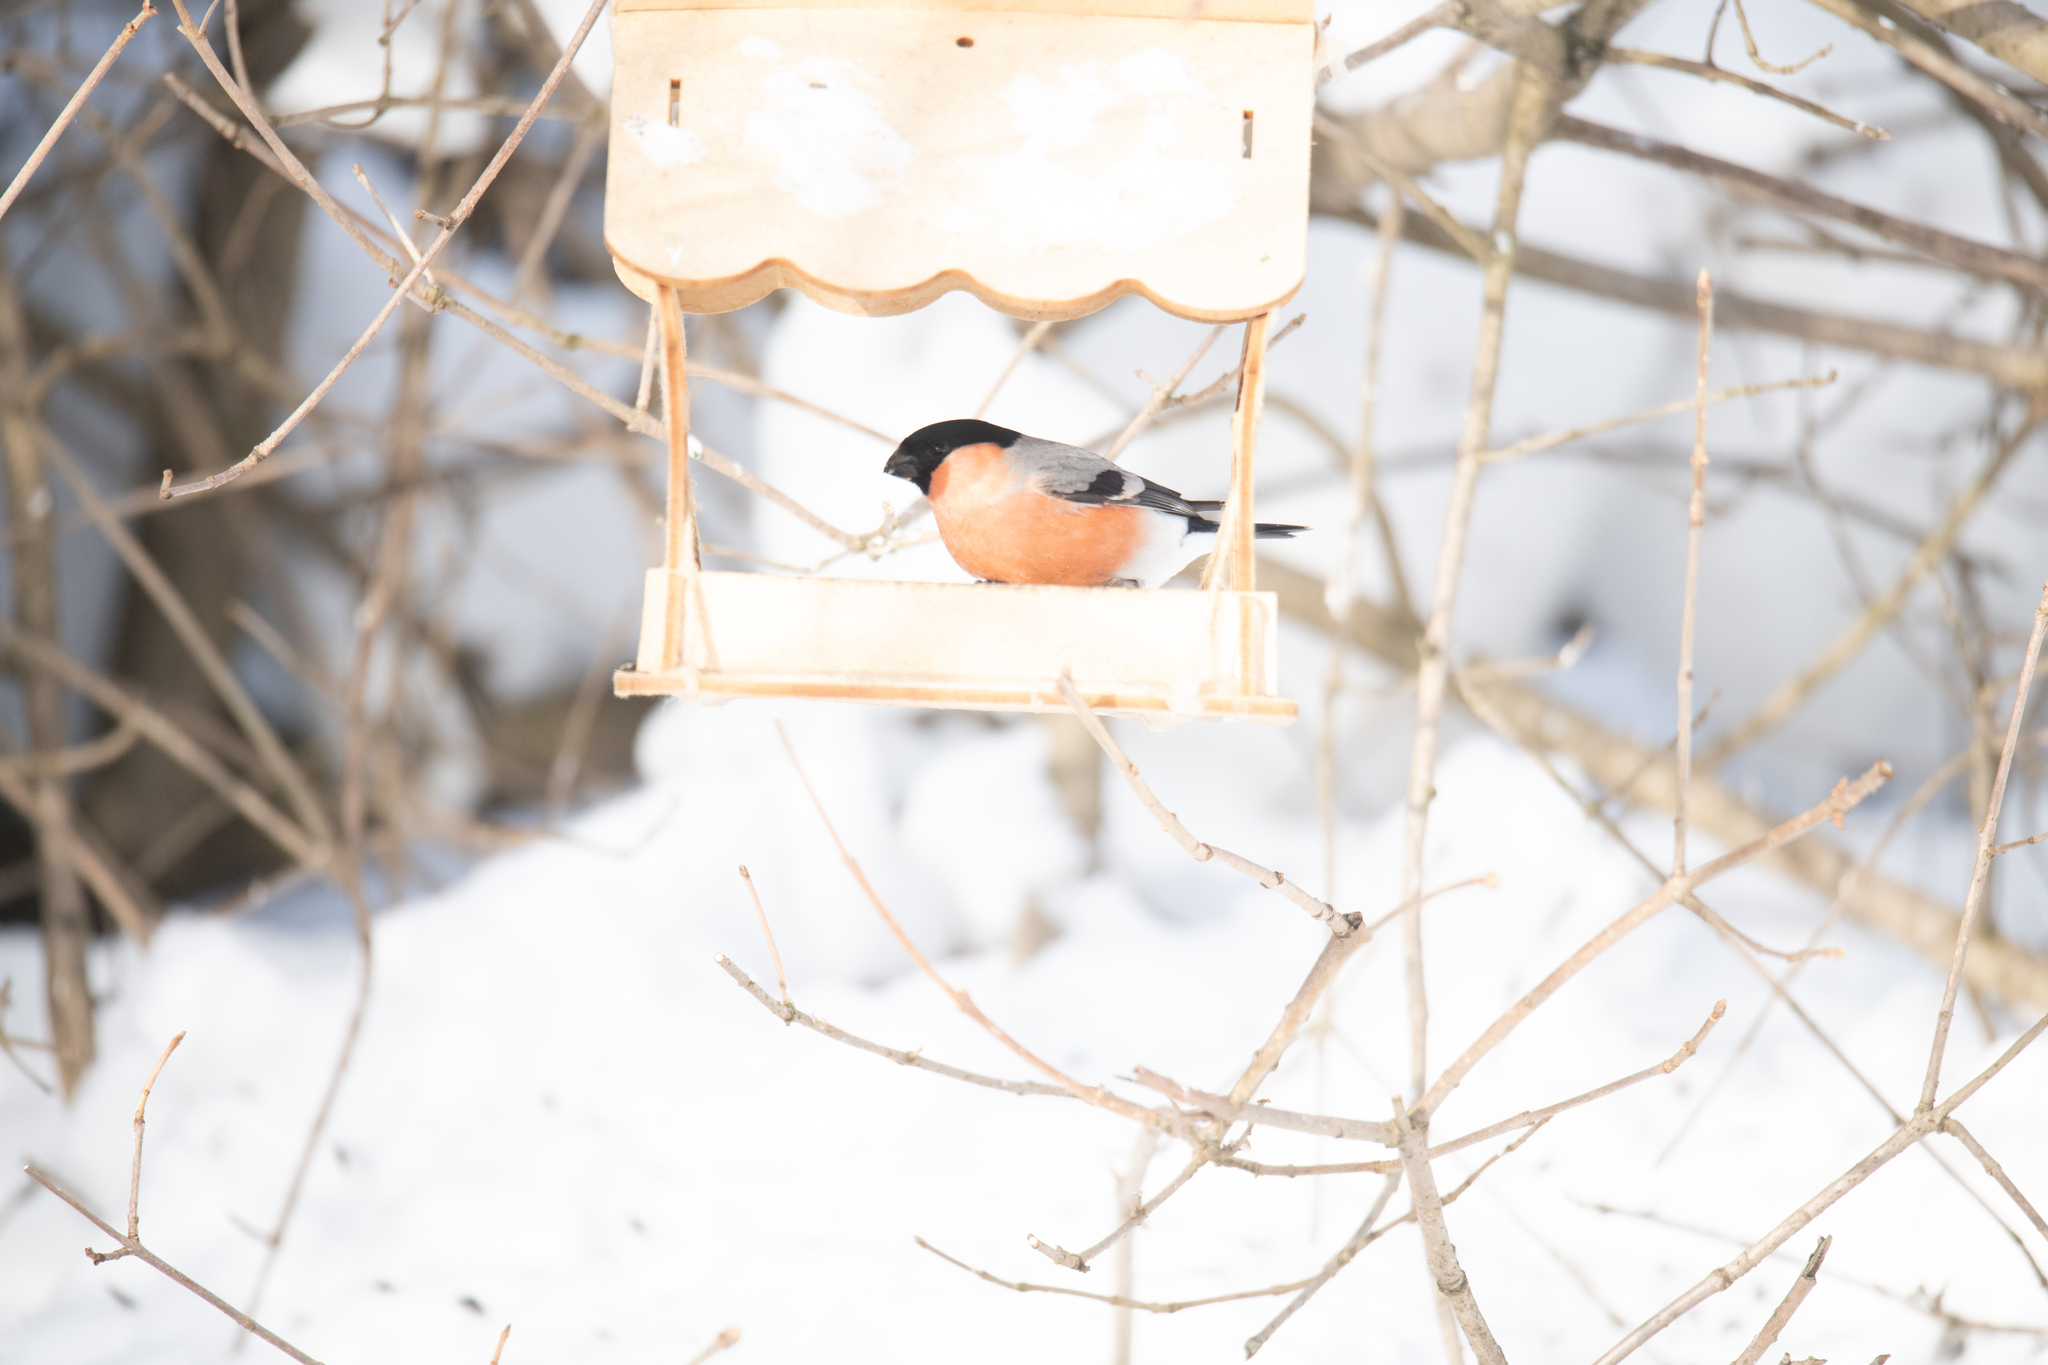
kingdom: Animalia
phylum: Chordata
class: Aves
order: Passeriformes
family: Fringillidae
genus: Pyrrhula
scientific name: Pyrrhula pyrrhula
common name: Eurasian bullfinch
